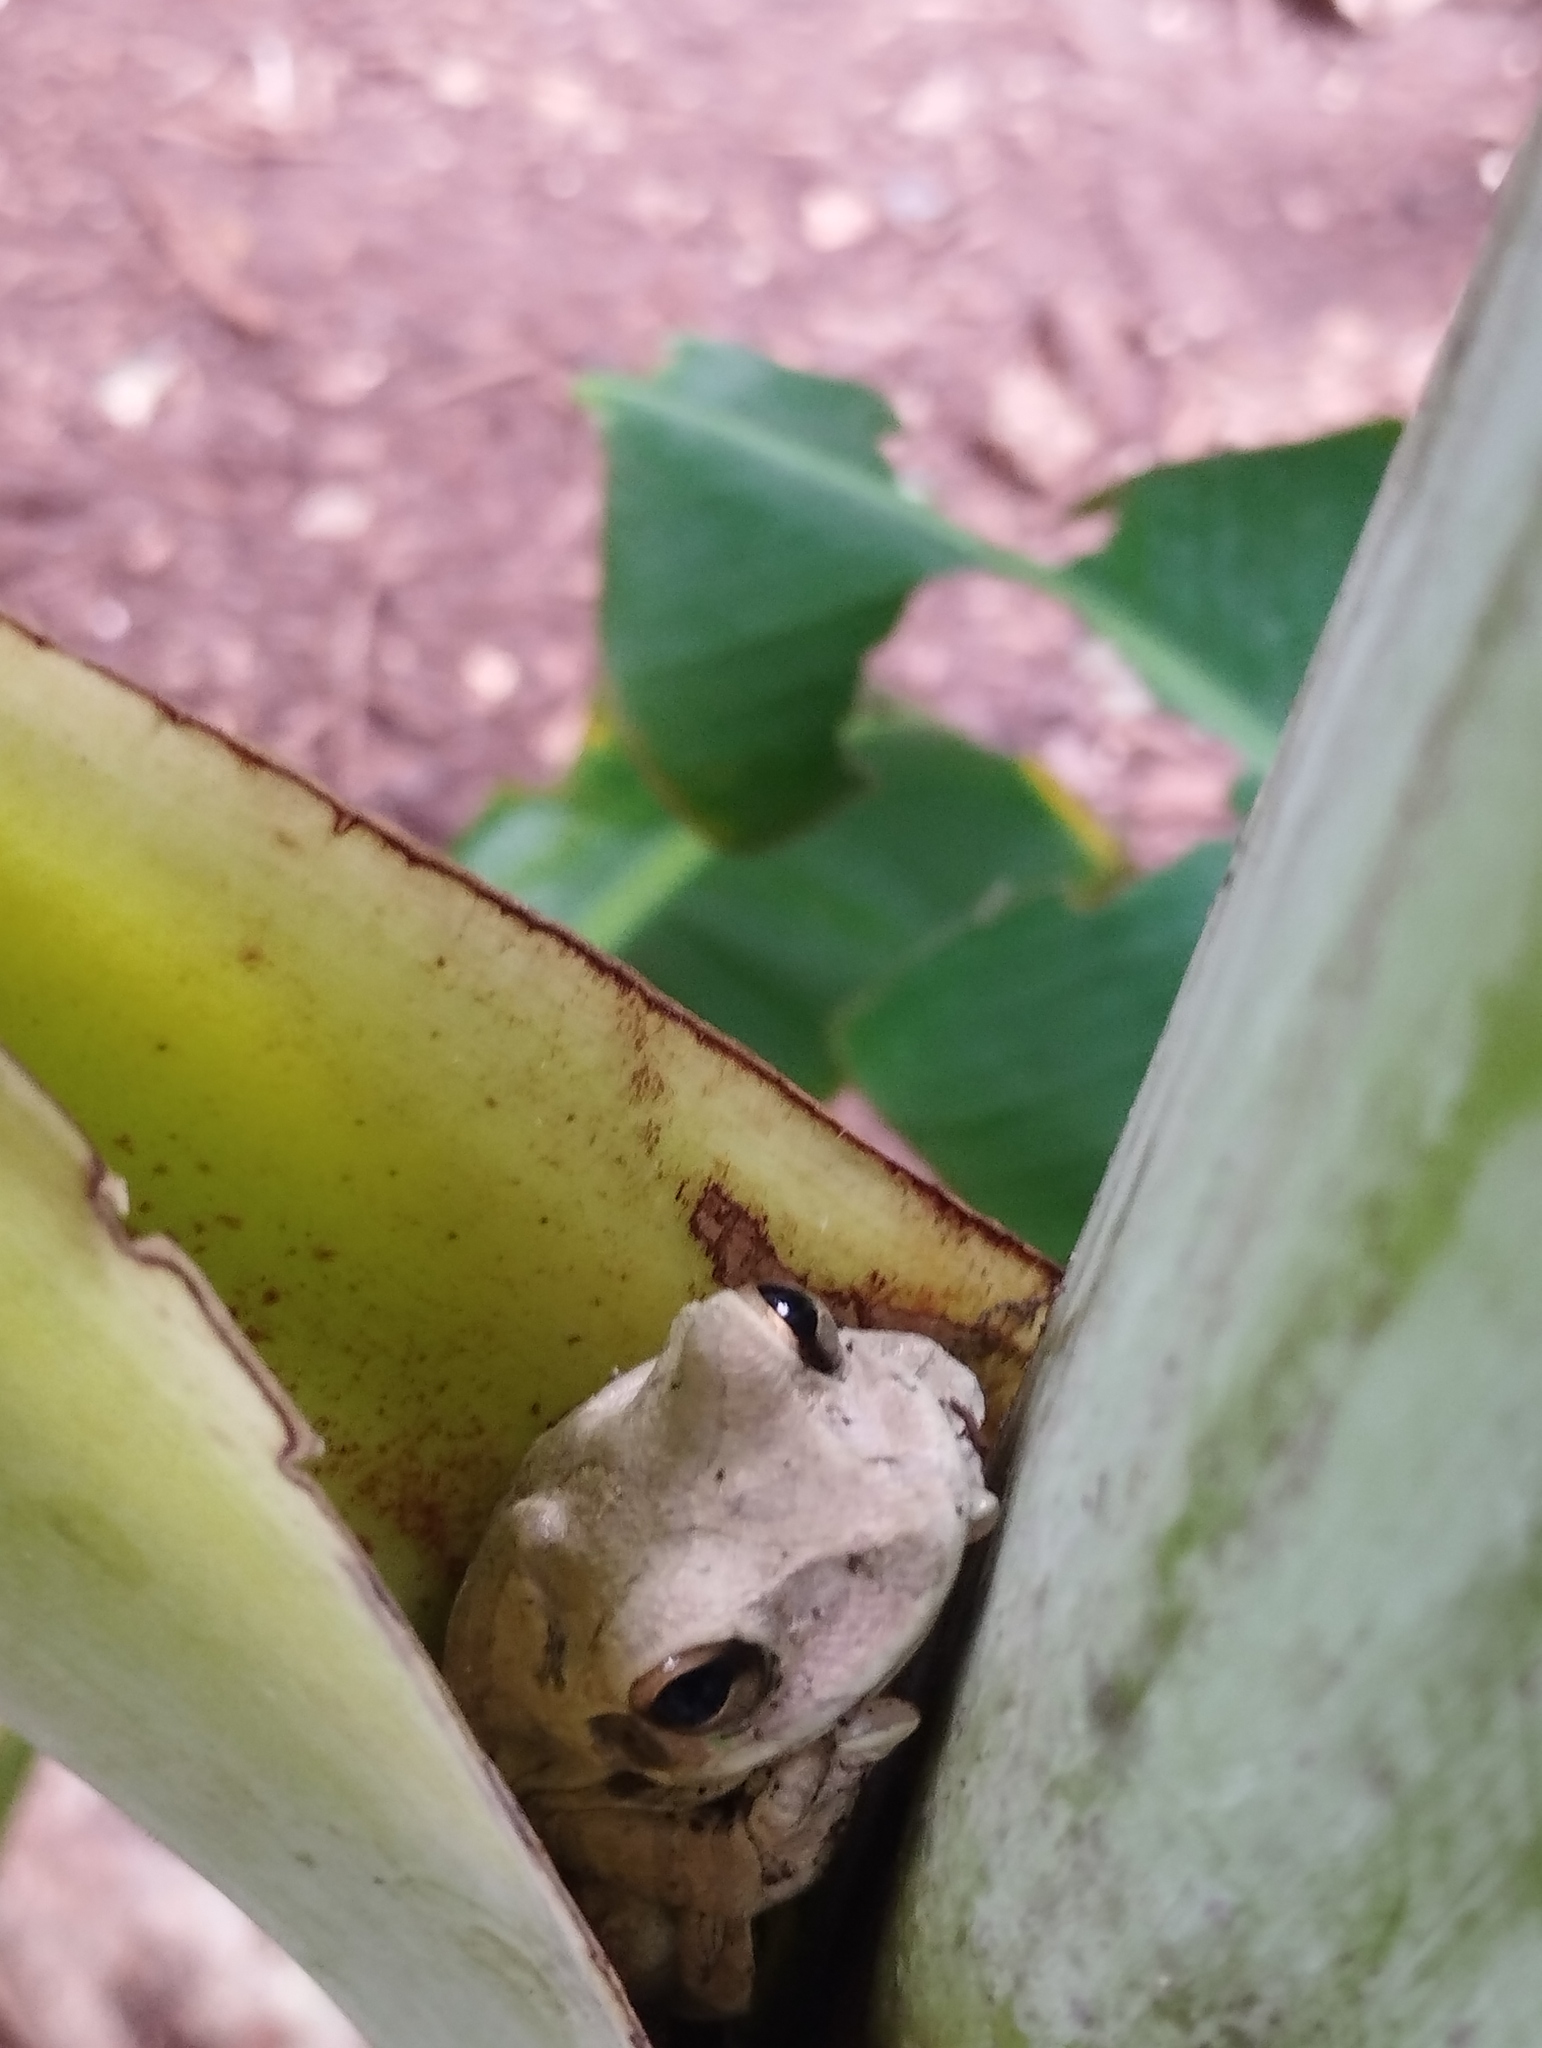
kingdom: Animalia
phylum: Chordata
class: Amphibia
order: Anura
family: Hylidae
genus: Smilisca
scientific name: Smilisca baudinii
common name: Mexican smilisca
